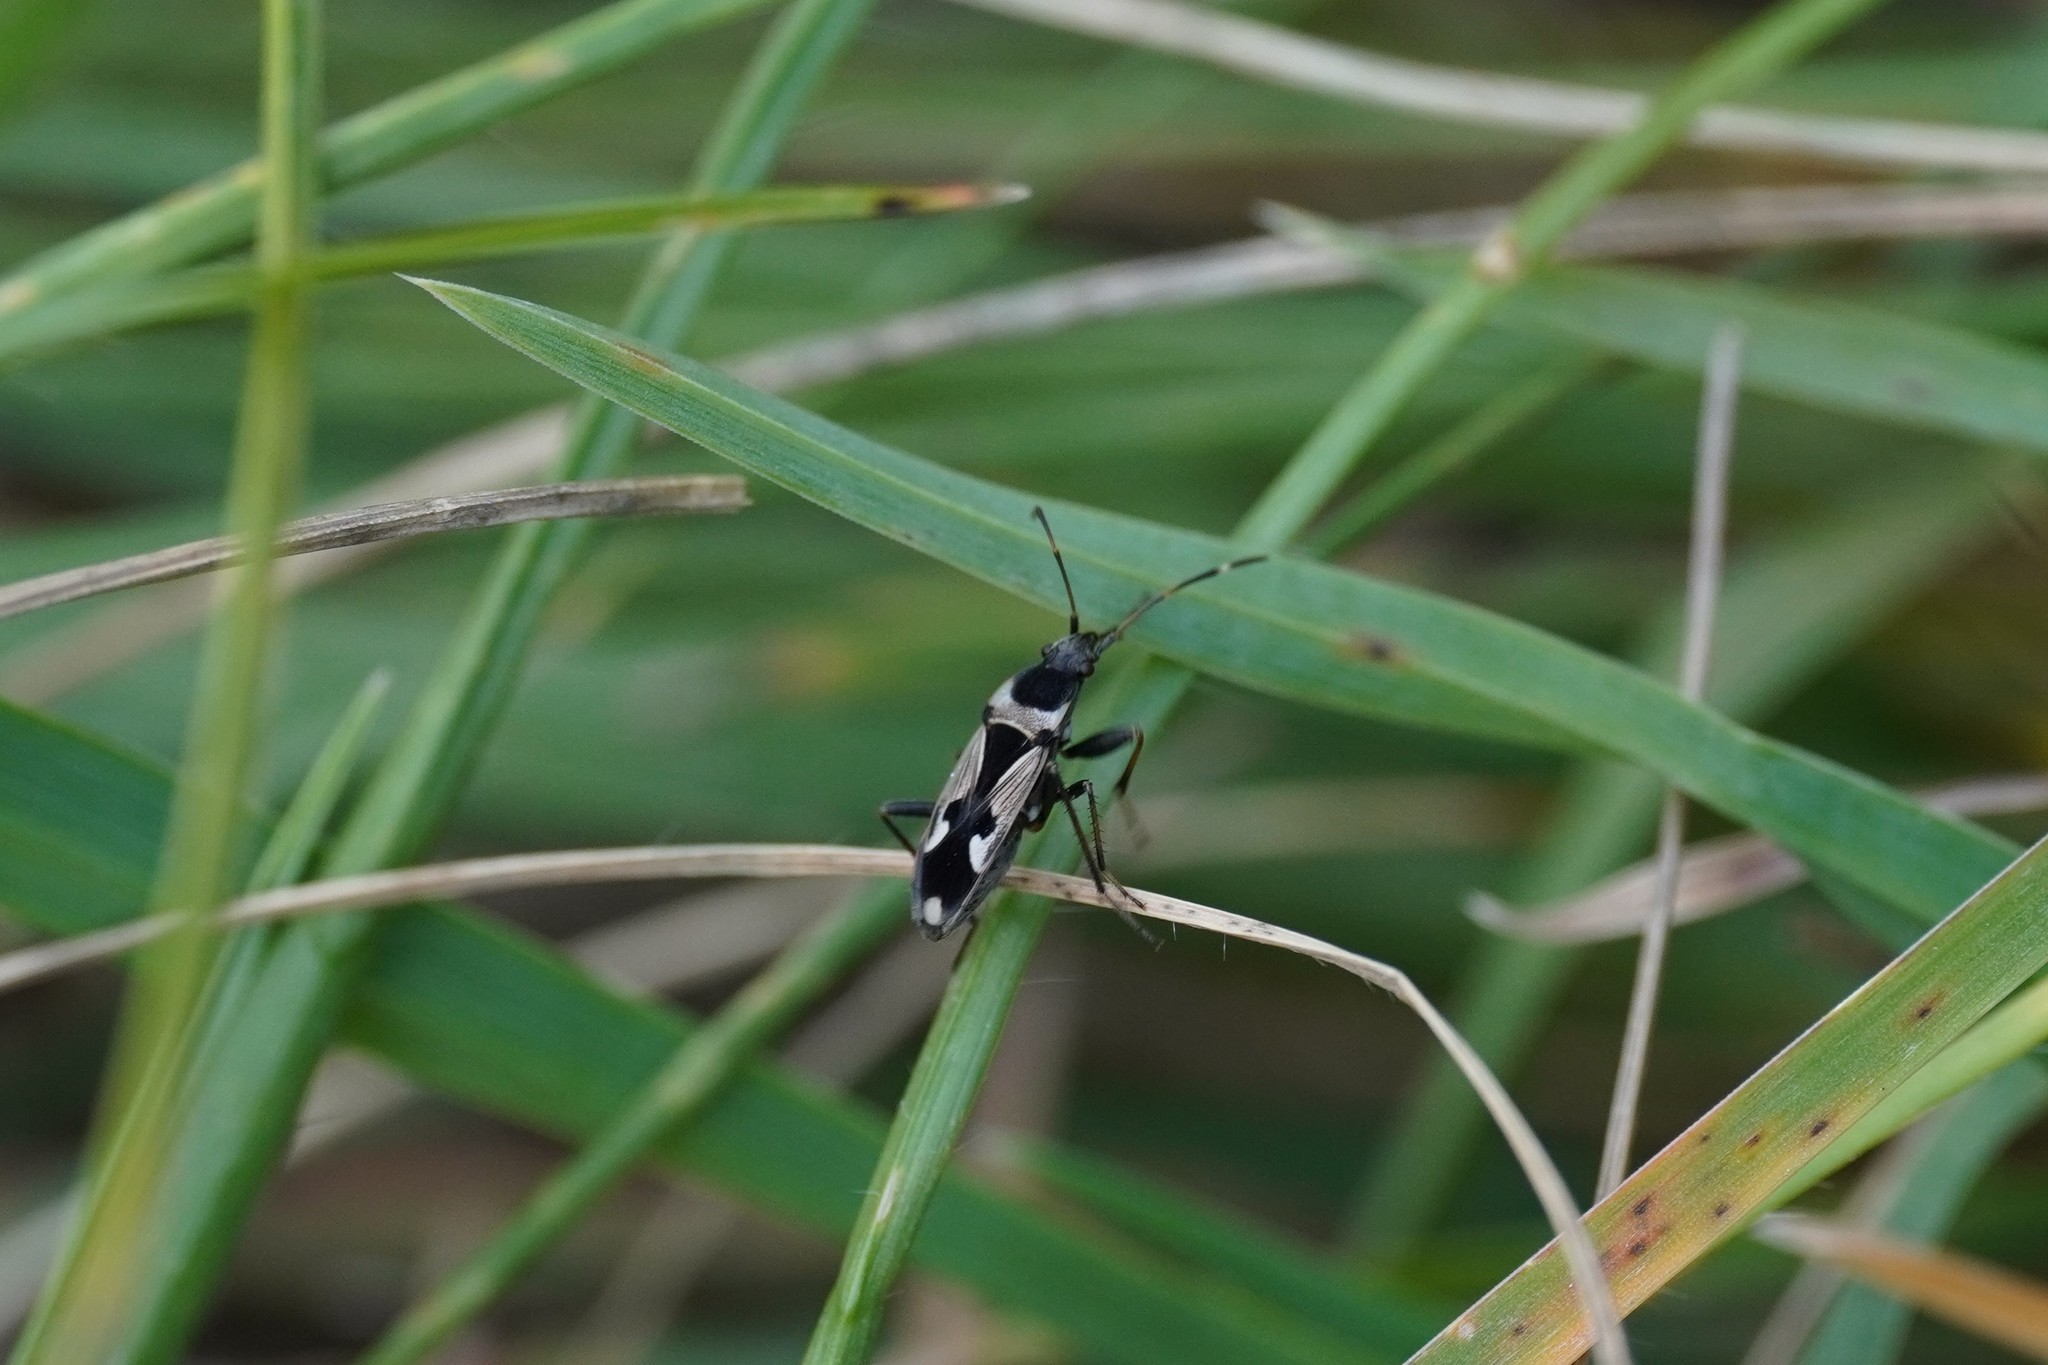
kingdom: Animalia
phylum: Arthropoda
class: Insecta
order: Hemiptera
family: Rhyparochromidae
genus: Raglius
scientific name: Raglius confusus
